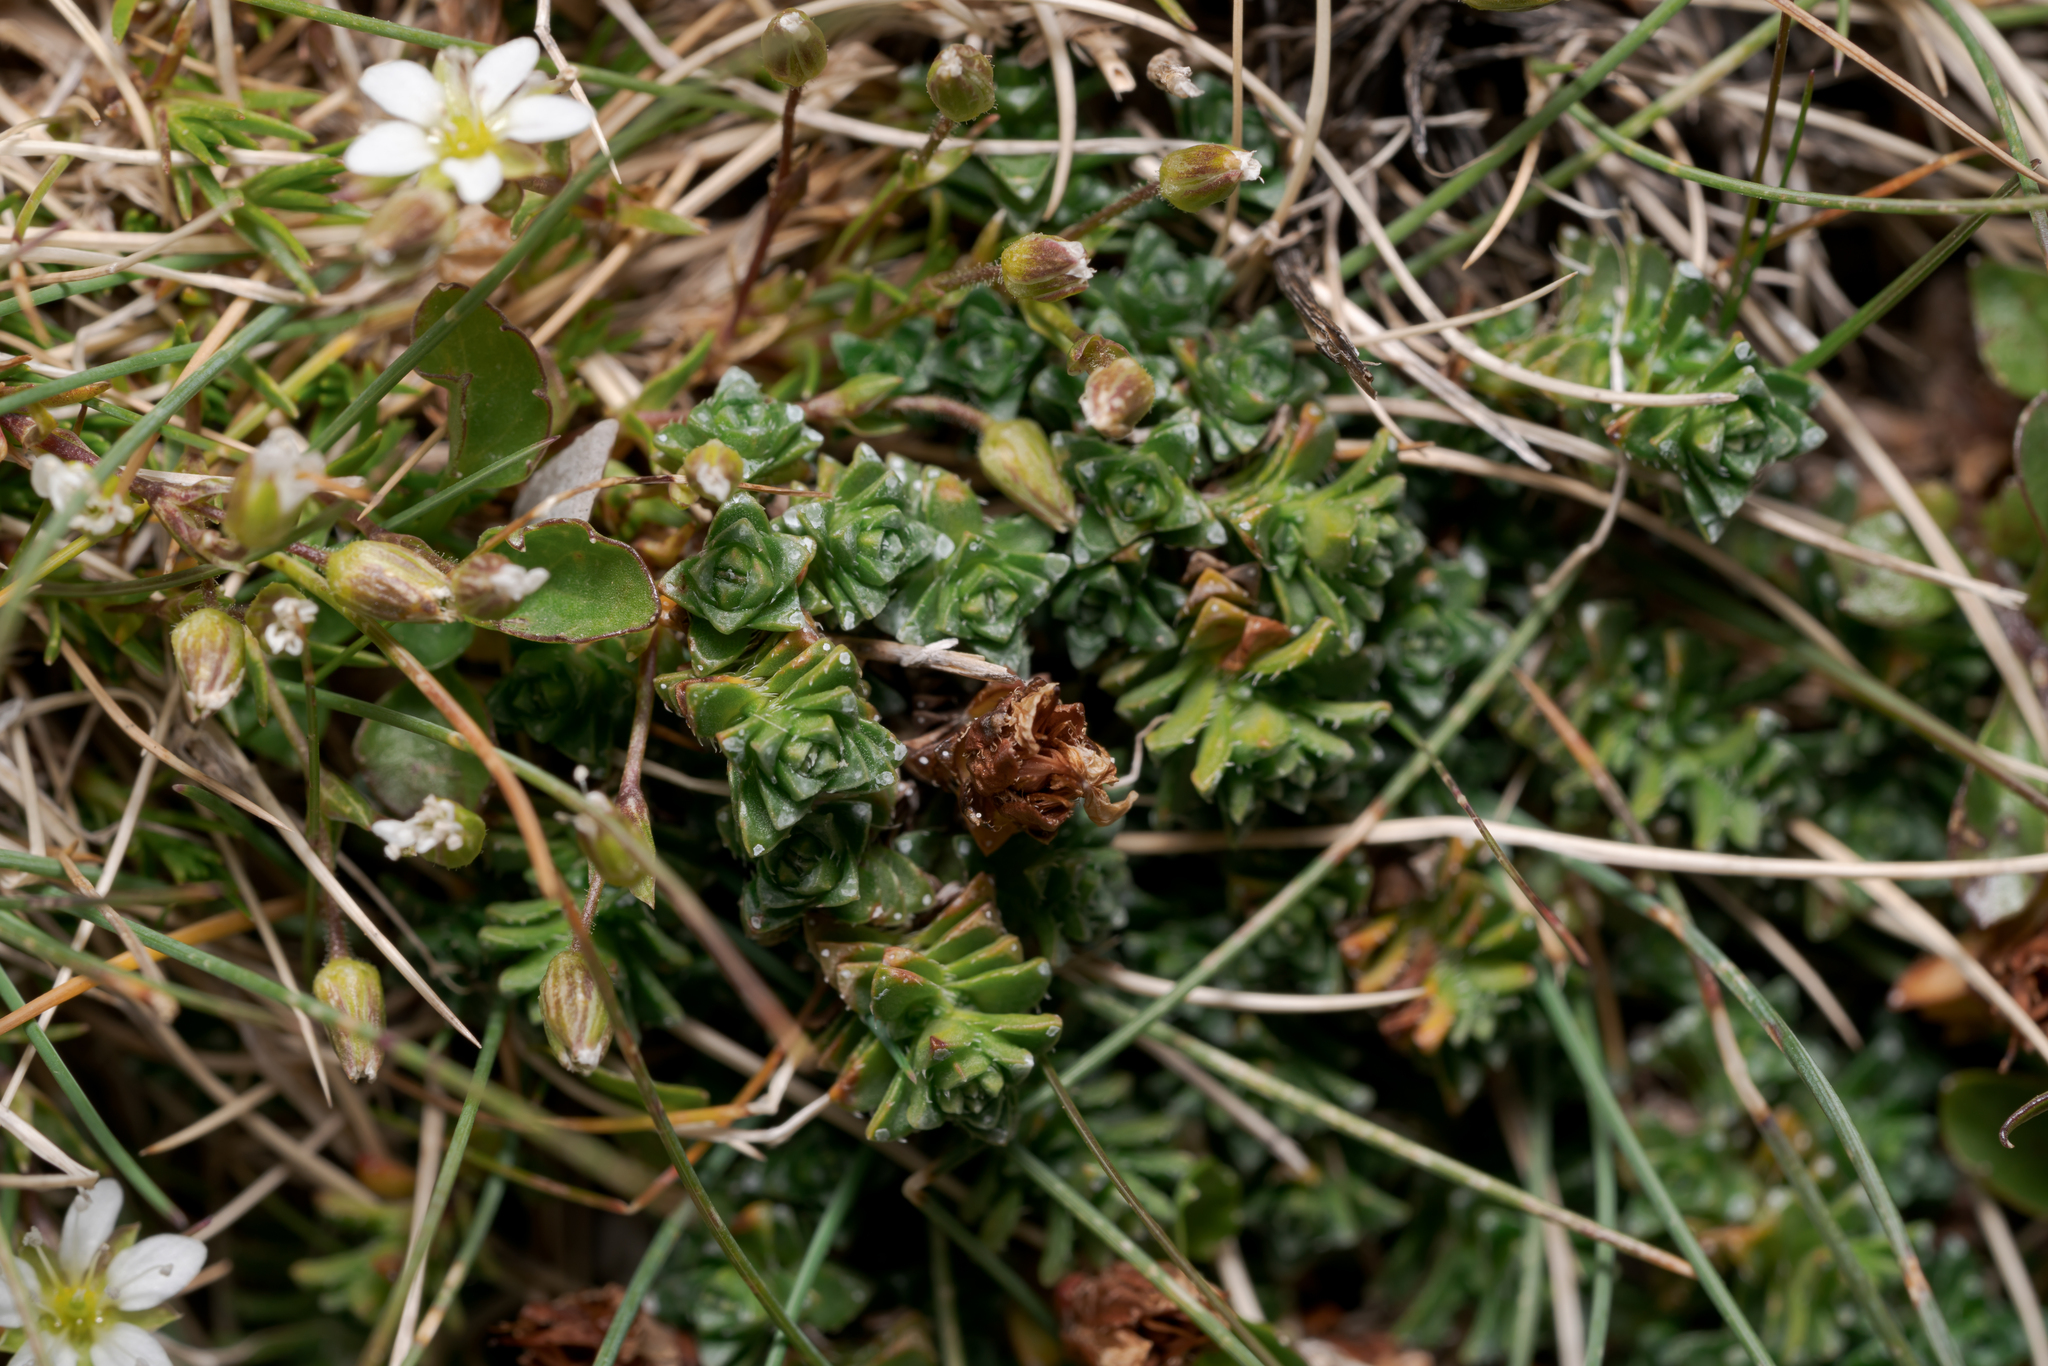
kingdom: Plantae
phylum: Tracheophyta
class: Magnoliopsida
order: Saxifragales
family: Saxifragaceae
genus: Saxifraga
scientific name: Saxifraga oppositifolia
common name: Purple saxifrage
